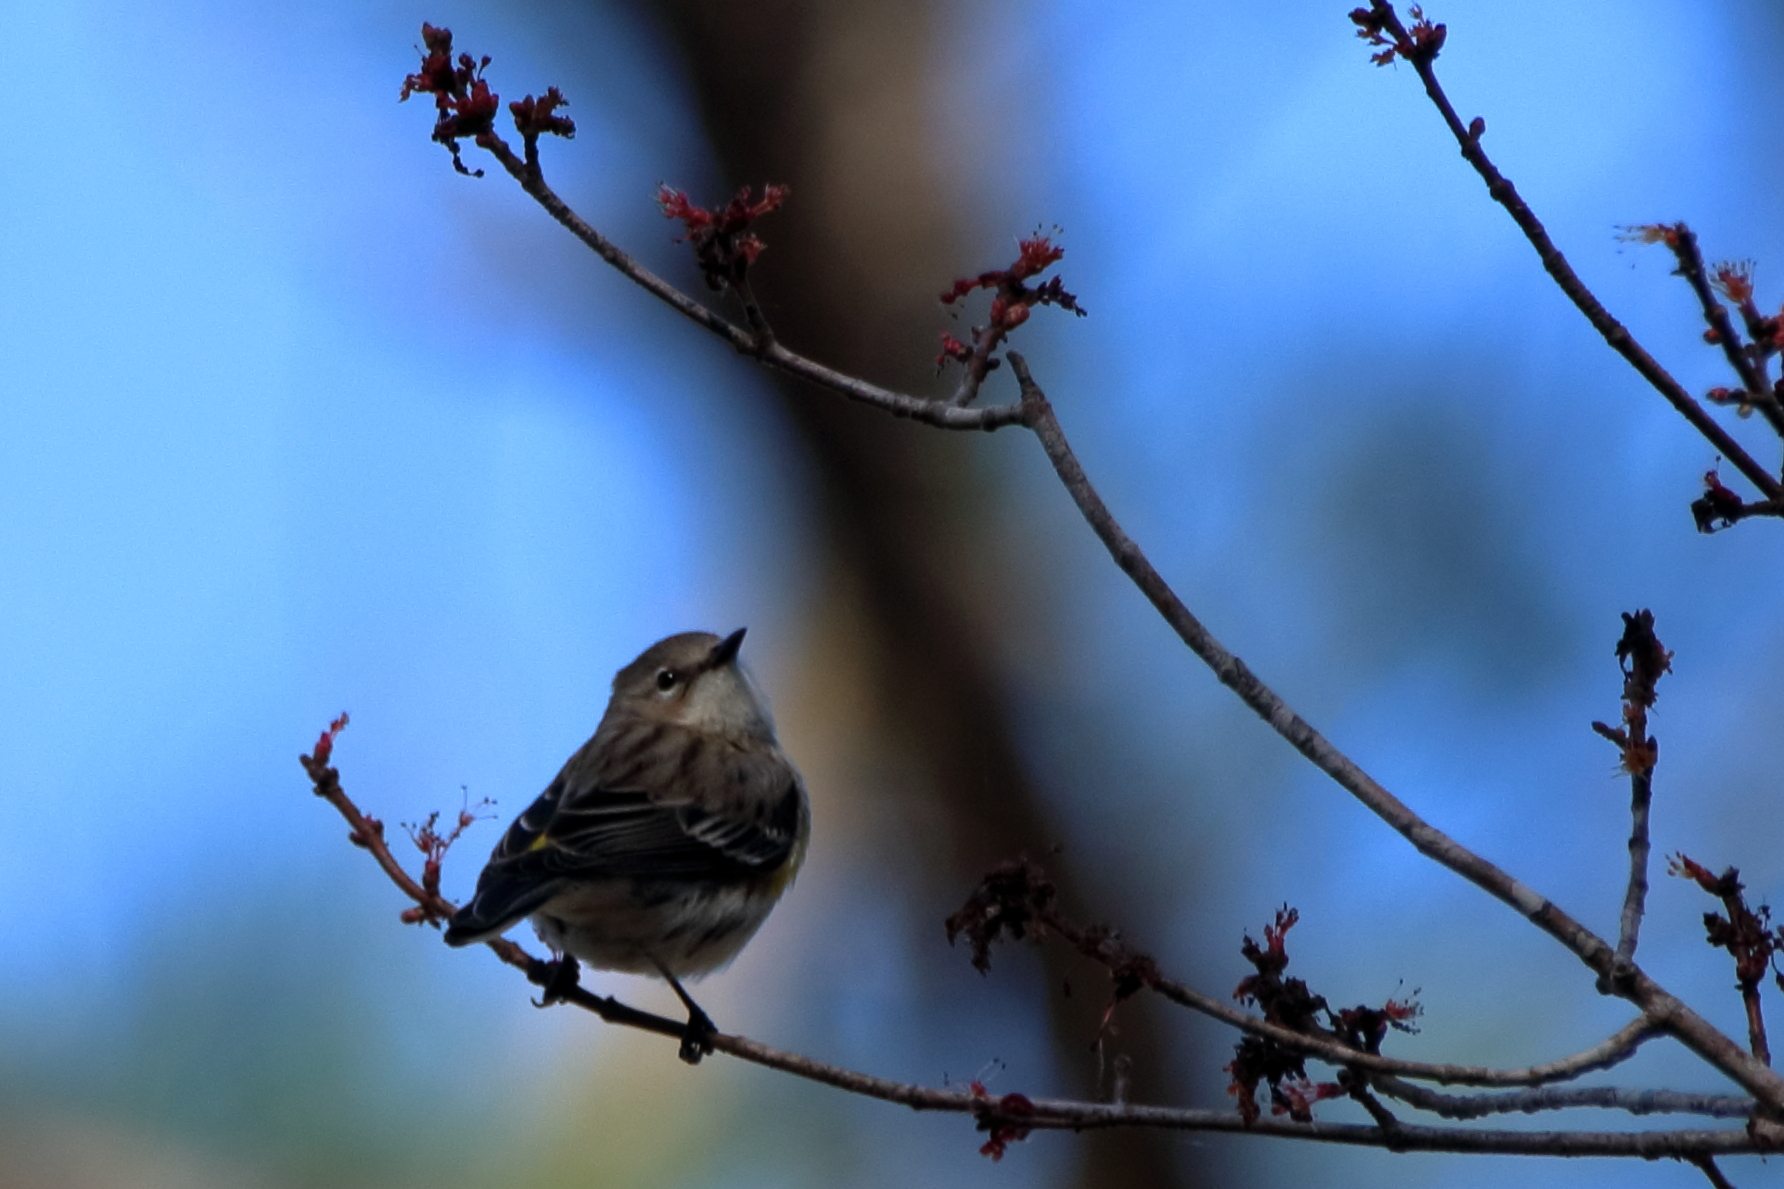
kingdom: Animalia
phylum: Chordata
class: Aves
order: Passeriformes
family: Parulidae
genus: Setophaga
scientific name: Setophaga coronata
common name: Myrtle warbler
